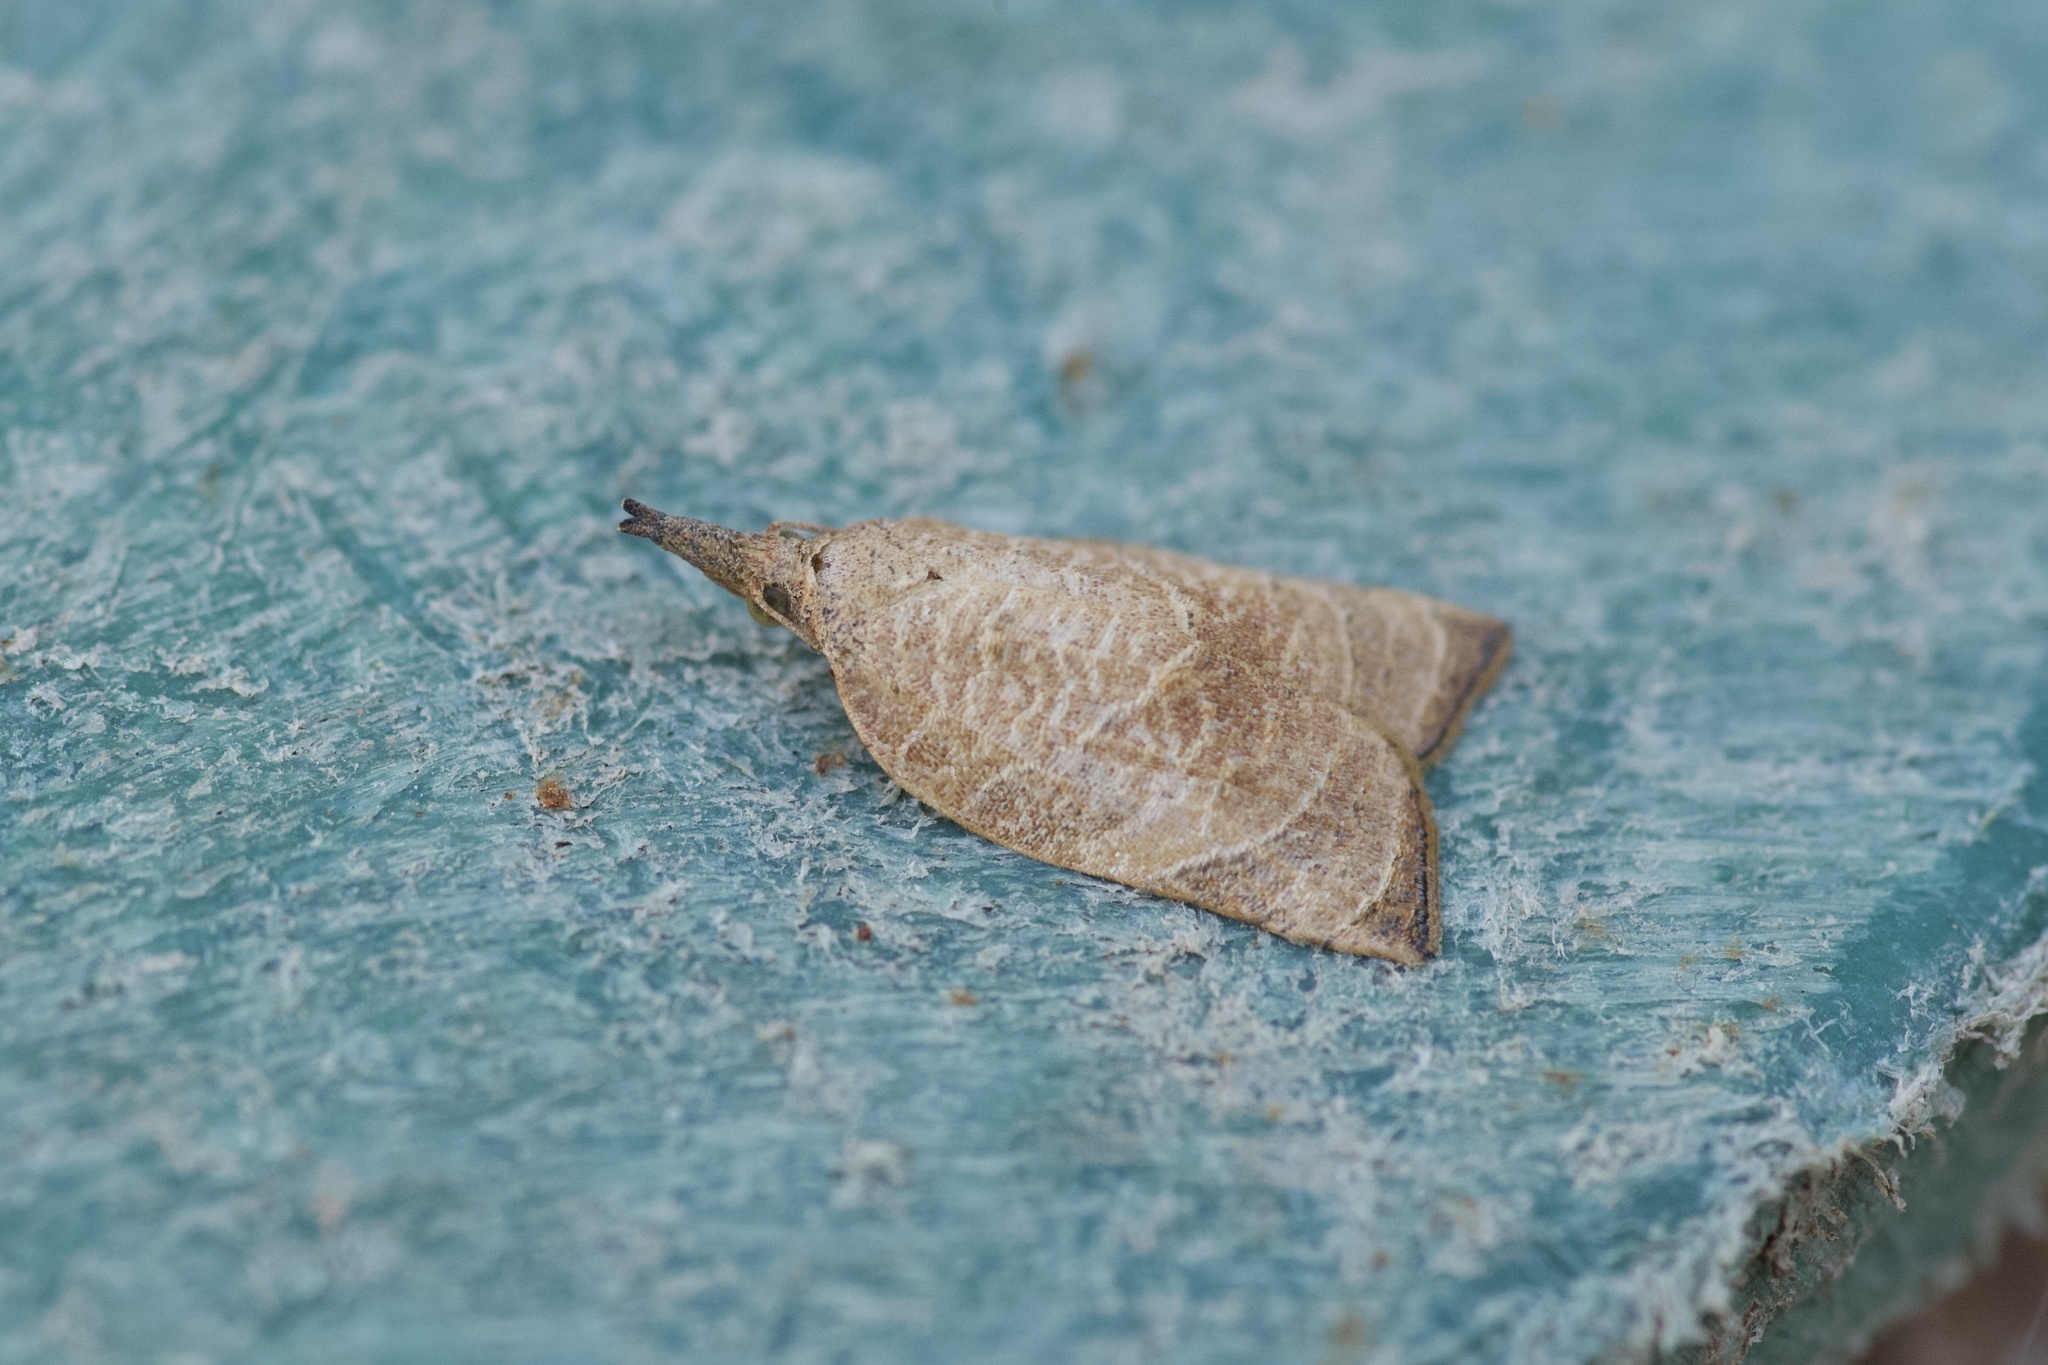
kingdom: Animalia
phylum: Arthropoda
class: Insecta
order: Lepidoptera
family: Tortricidae
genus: Platynota
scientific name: Platynota rostrana
